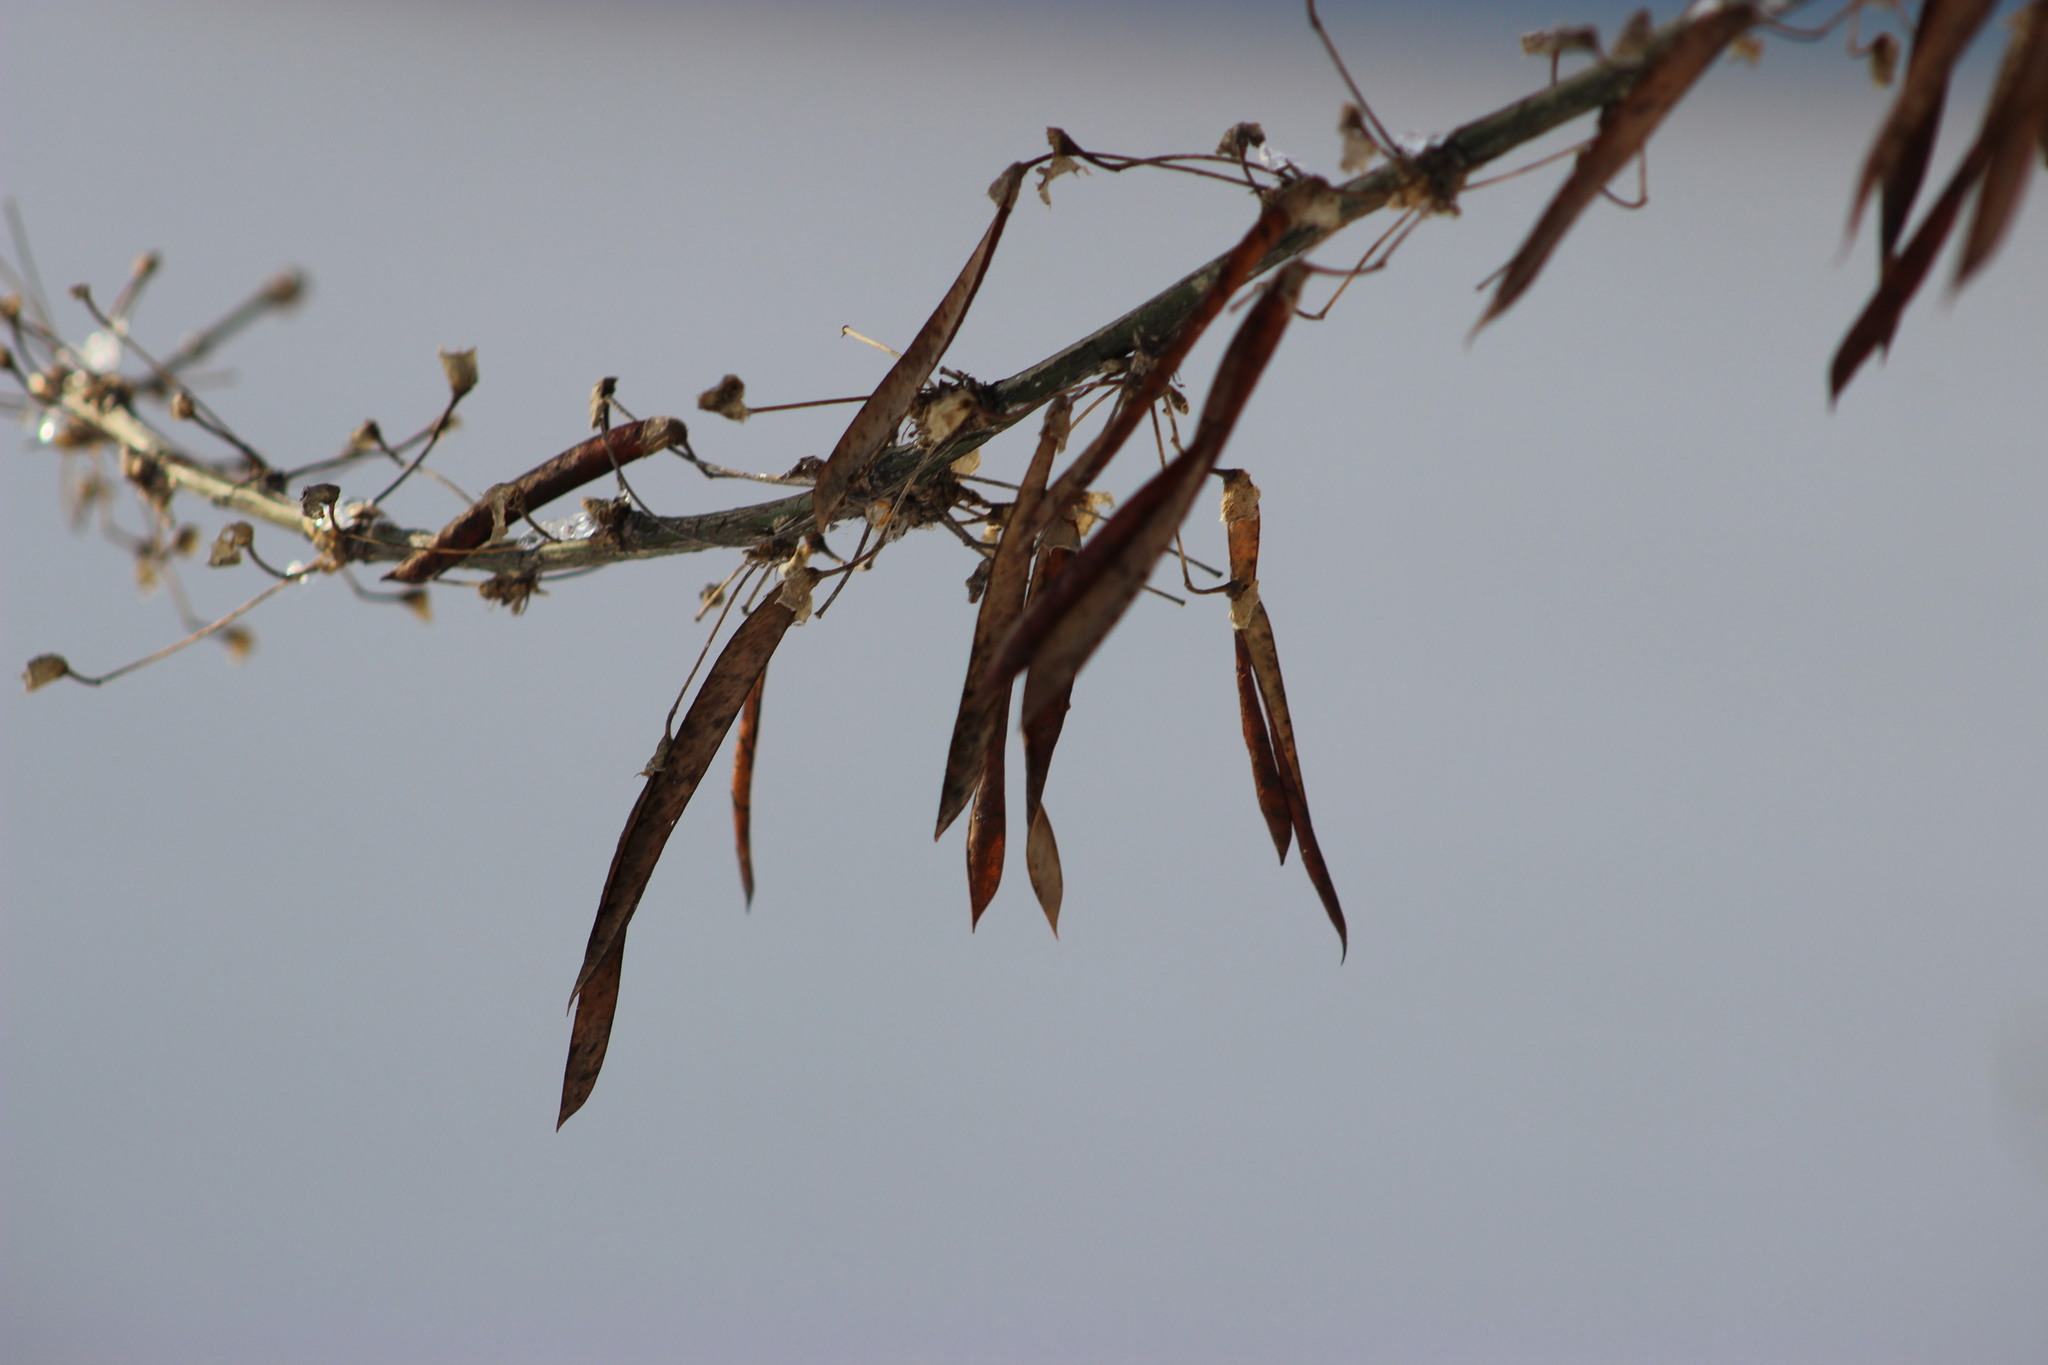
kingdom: Plantae
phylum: Tracheophyta
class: Magnoliopsida
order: Fabales
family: Fabaceae
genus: Caragana
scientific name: Caragana arborescens
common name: Siberian peashrub
